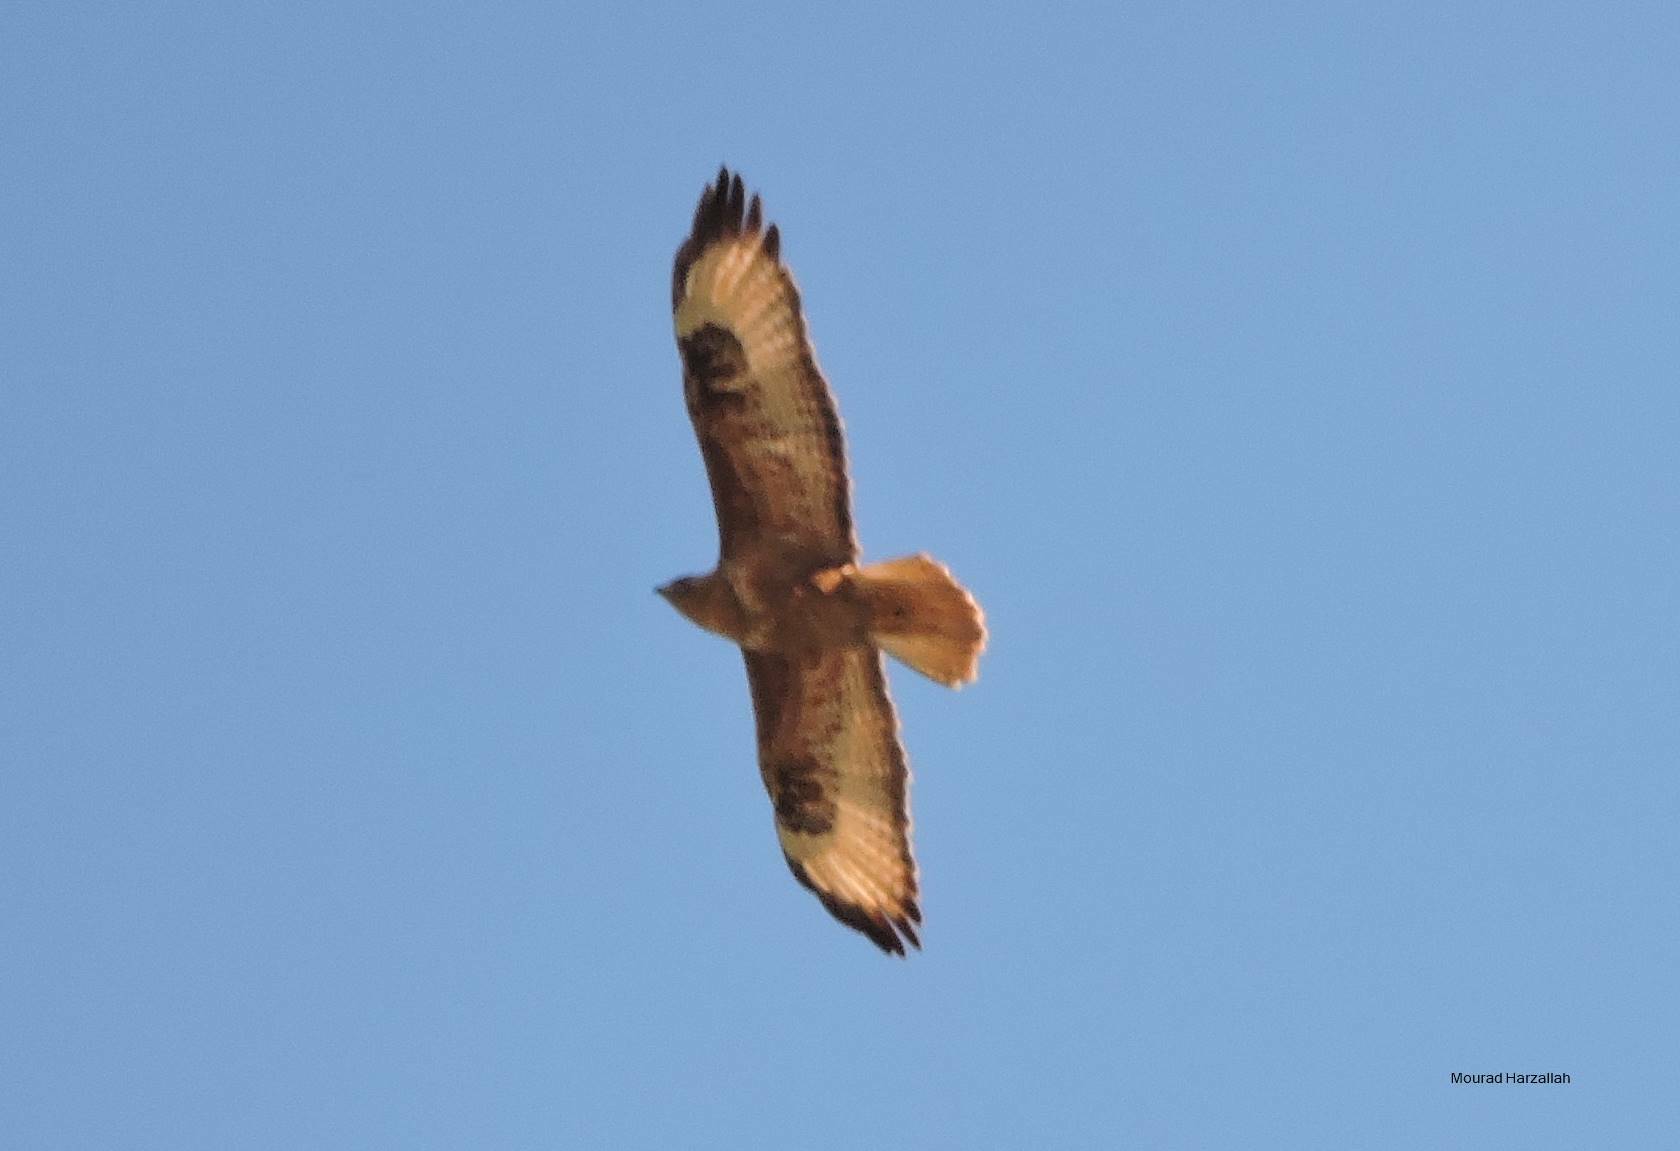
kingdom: Animalia
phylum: Chordata
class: Aves
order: Accipitriformes
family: Accipitridae
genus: Buteo
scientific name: Buteo rufinus
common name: Long-legged buzzard
